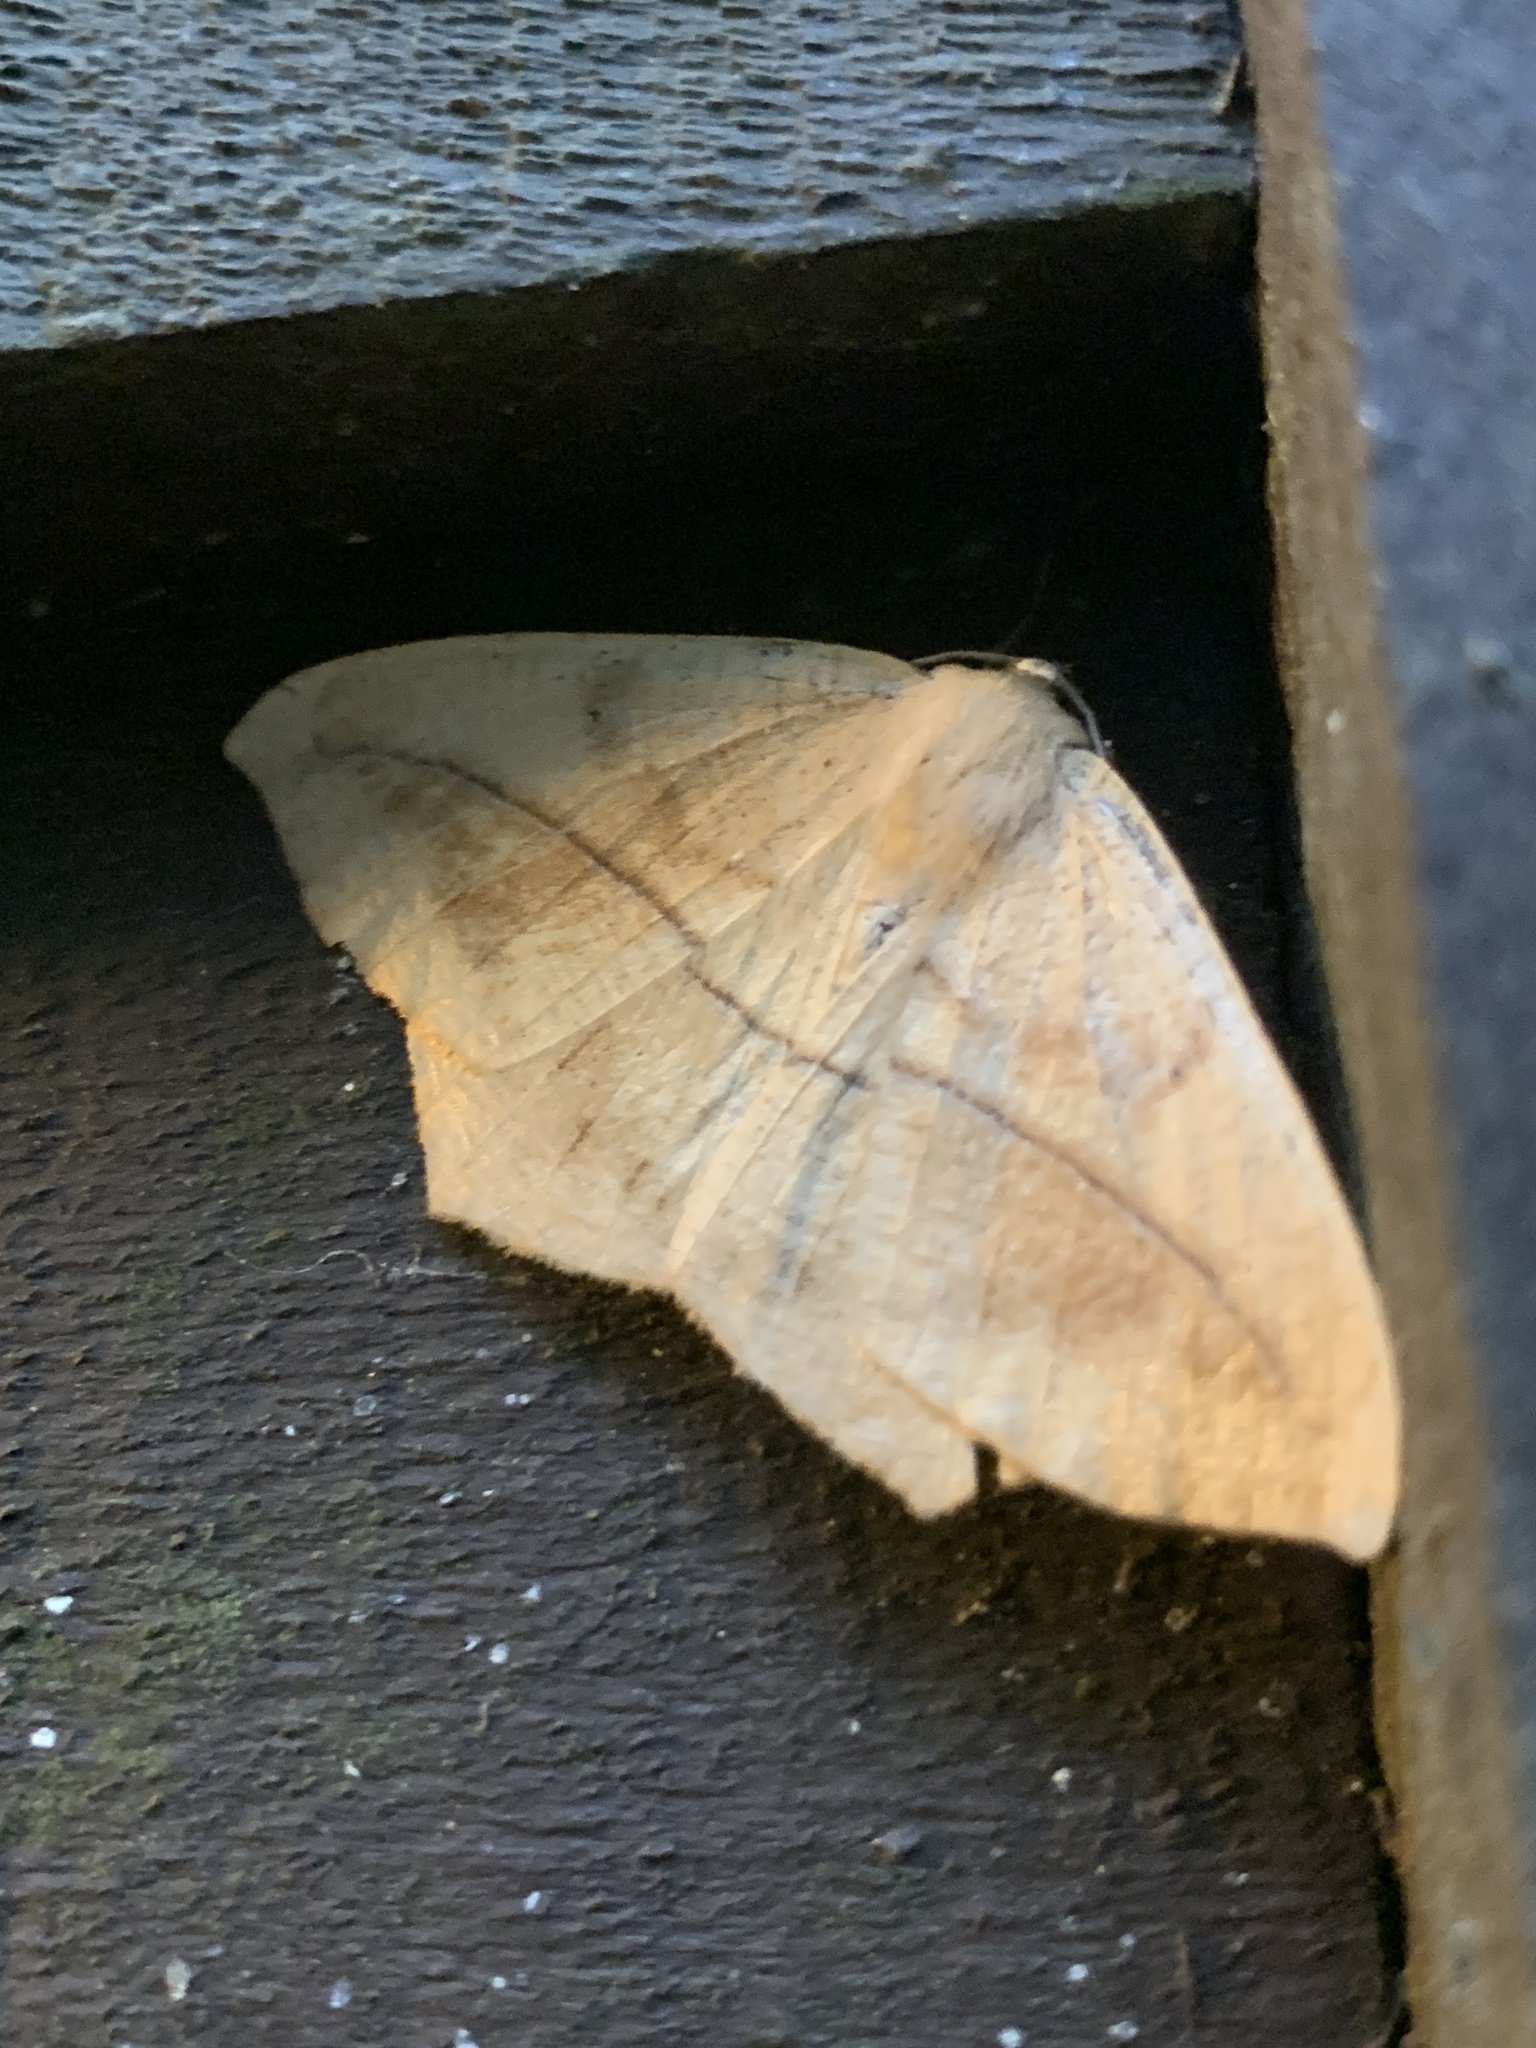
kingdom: Animalia
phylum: Arthropoda
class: Insecta
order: Lepidoptera
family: Geometridae
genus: Prochoerodes
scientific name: Prochoerodes lineola
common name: Large maple spanworm
